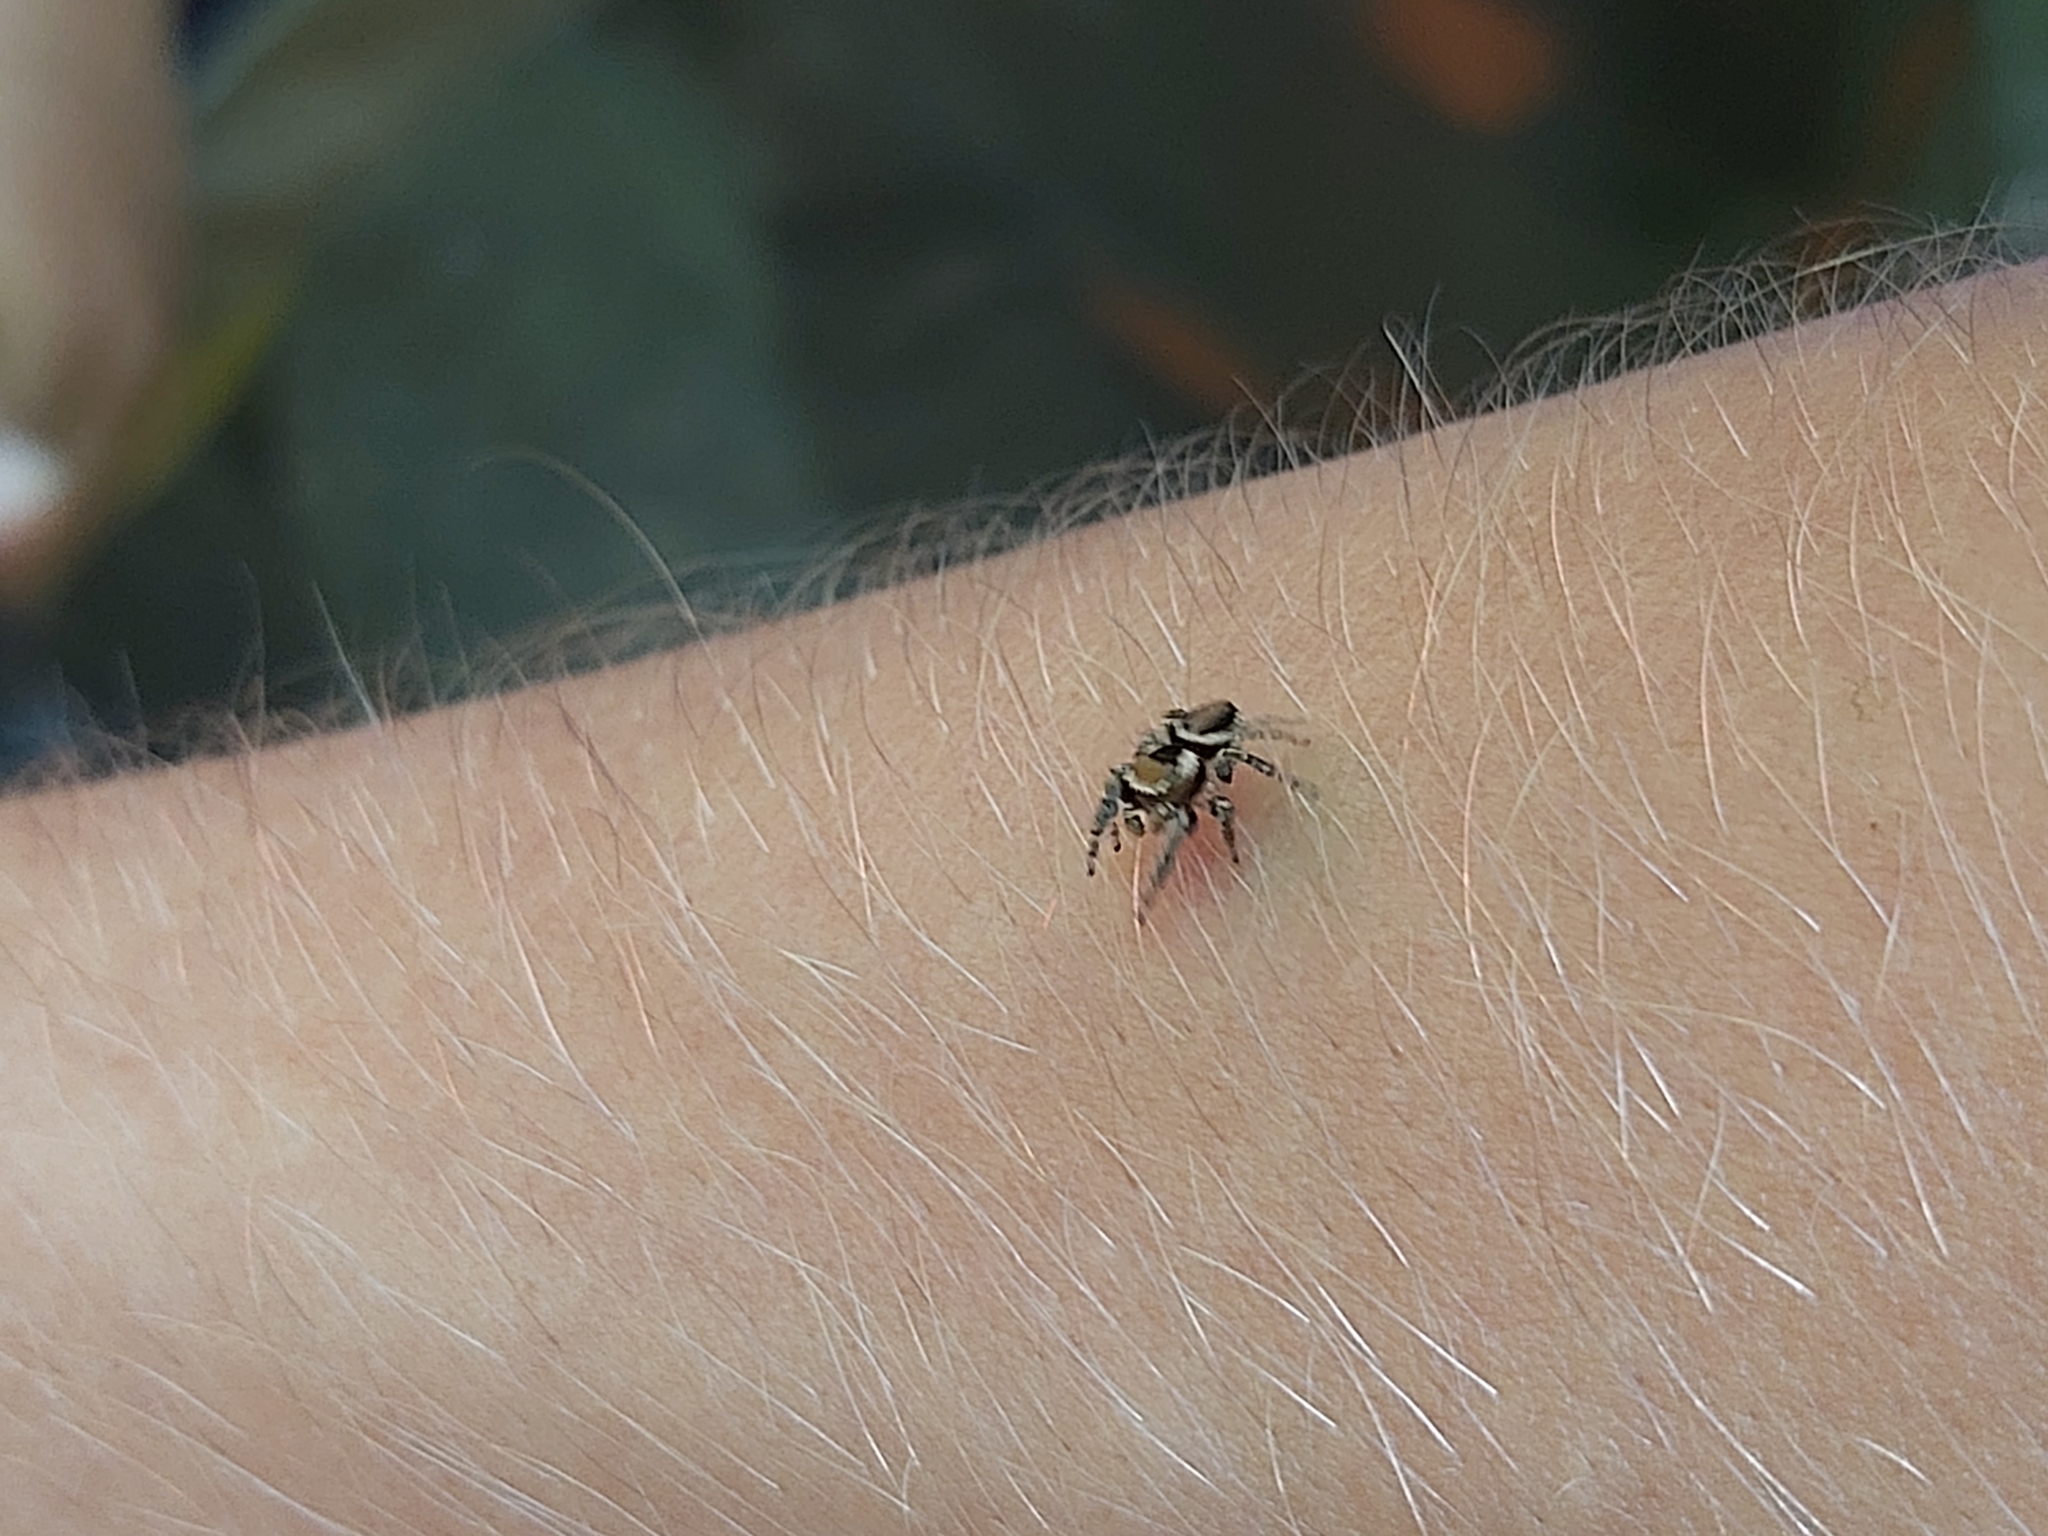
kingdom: Animalia
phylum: Arthropoda
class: Arachnida
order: Araneae
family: Salticidae
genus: Evarcha
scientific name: Evarcha falcata
